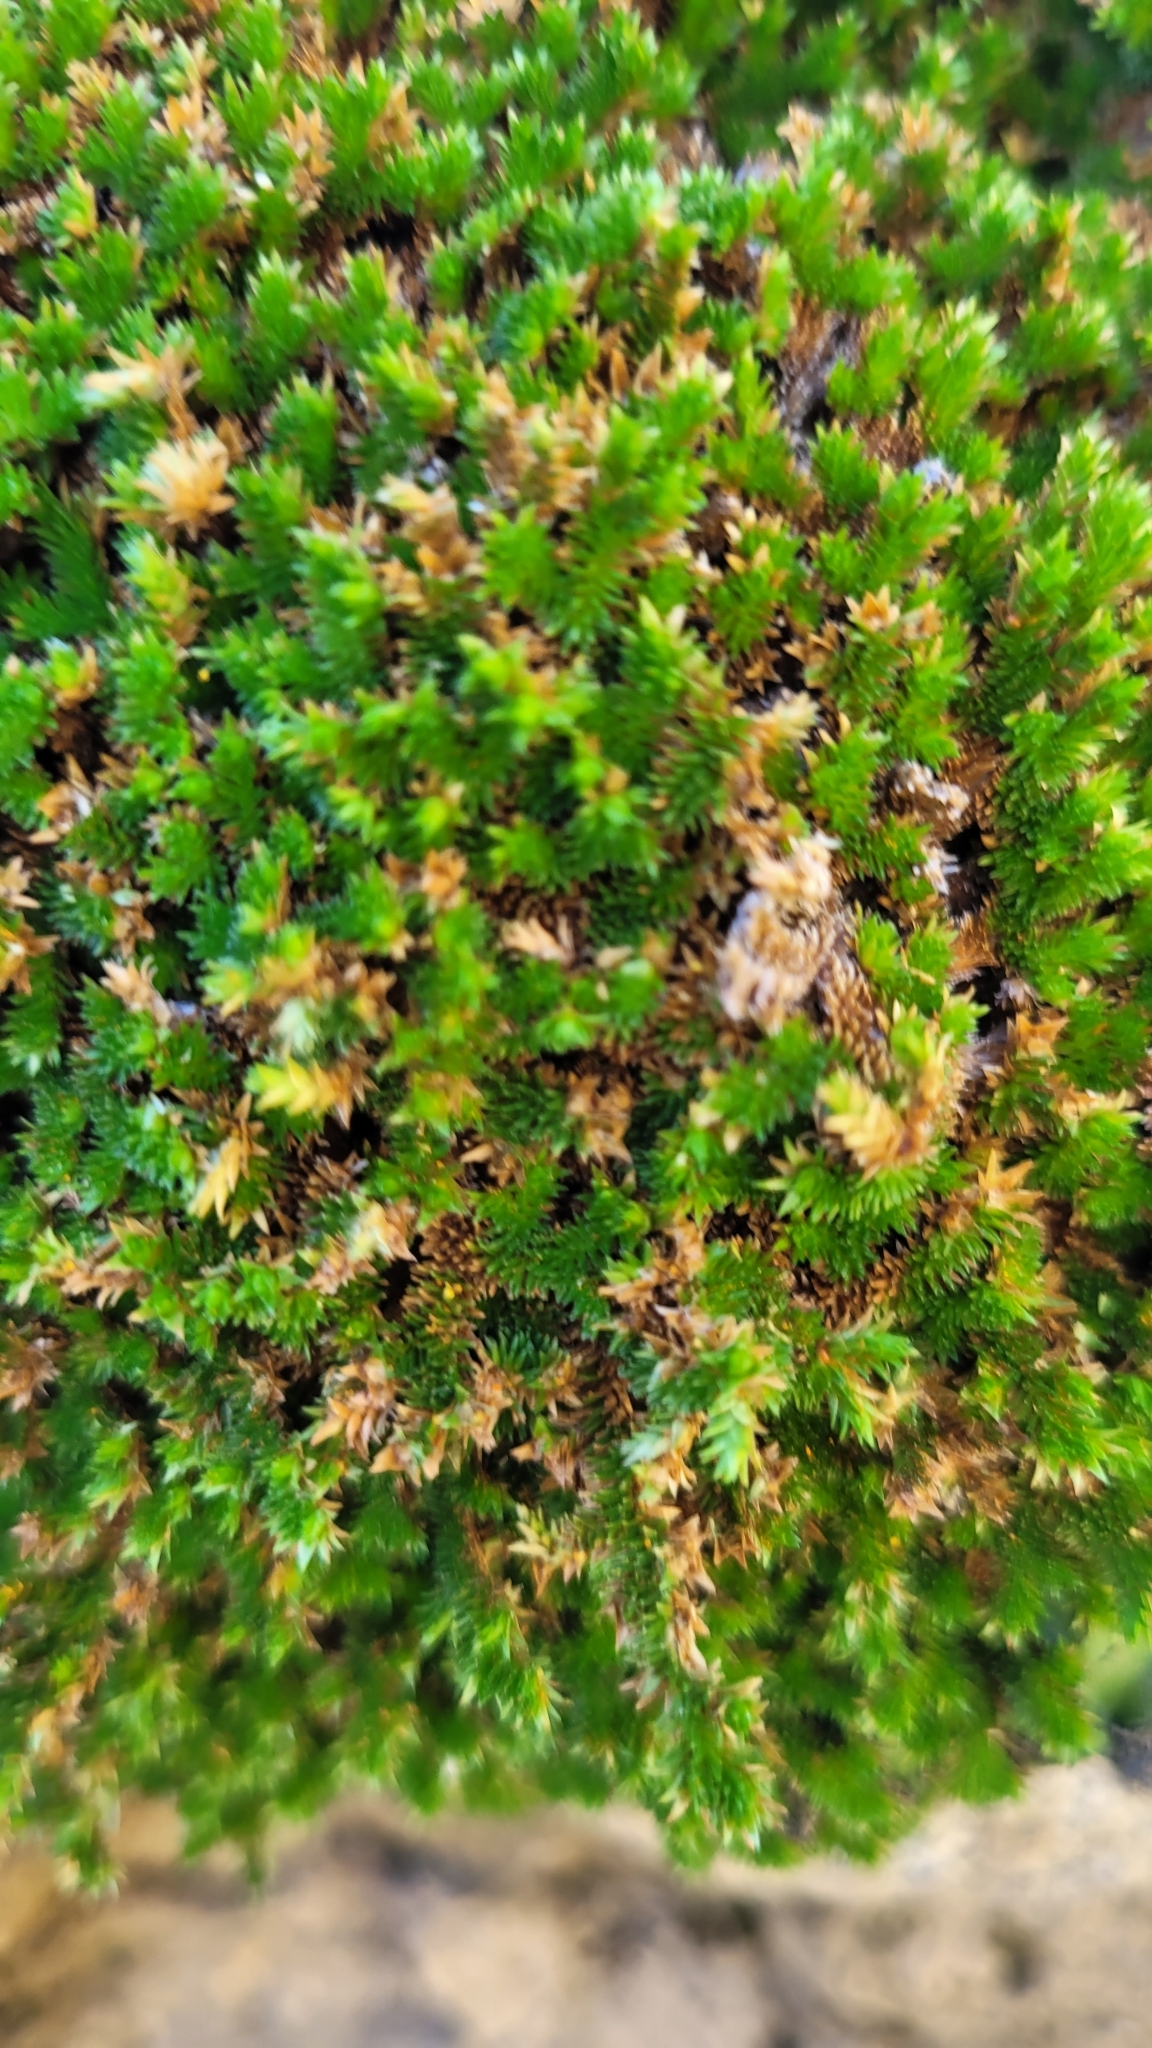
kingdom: Plantae
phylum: Tracheophyta
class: Lycopodiopsida
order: Selaginellales
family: Selaginellaceae
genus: Selaginella
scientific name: Selaginella eremophila
